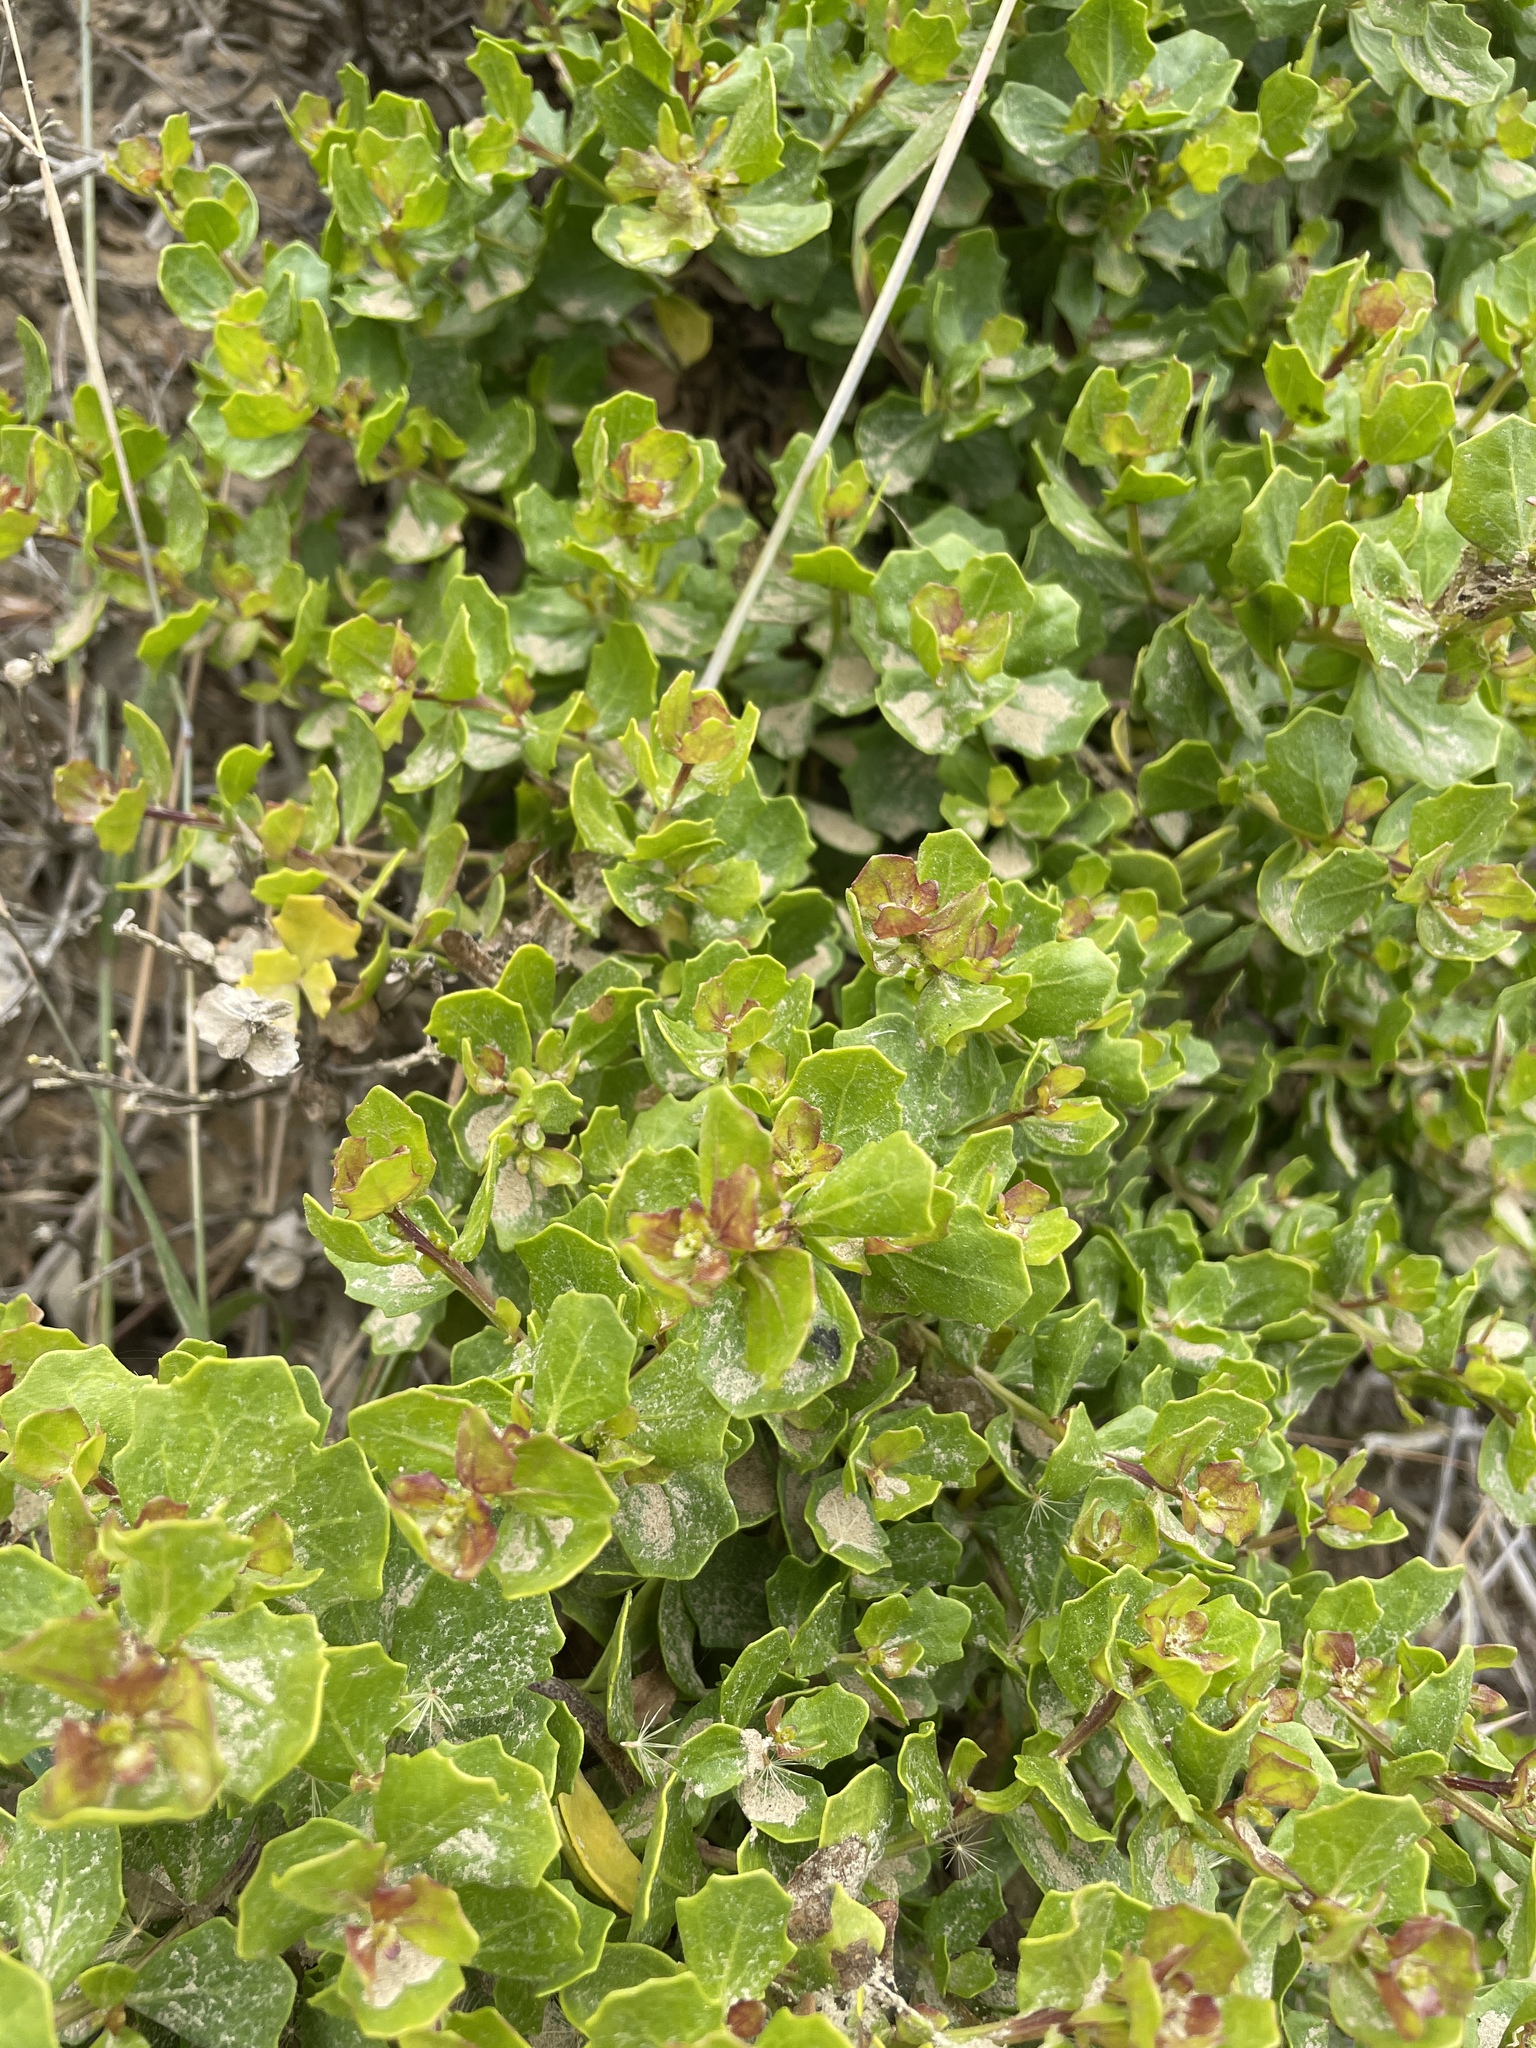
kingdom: Plantae
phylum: Tracheophyta
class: Magnoliopsida
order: Asterales
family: Asteraceae
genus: Baccharis
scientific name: Baccharis pilularis
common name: Coyotebrush
